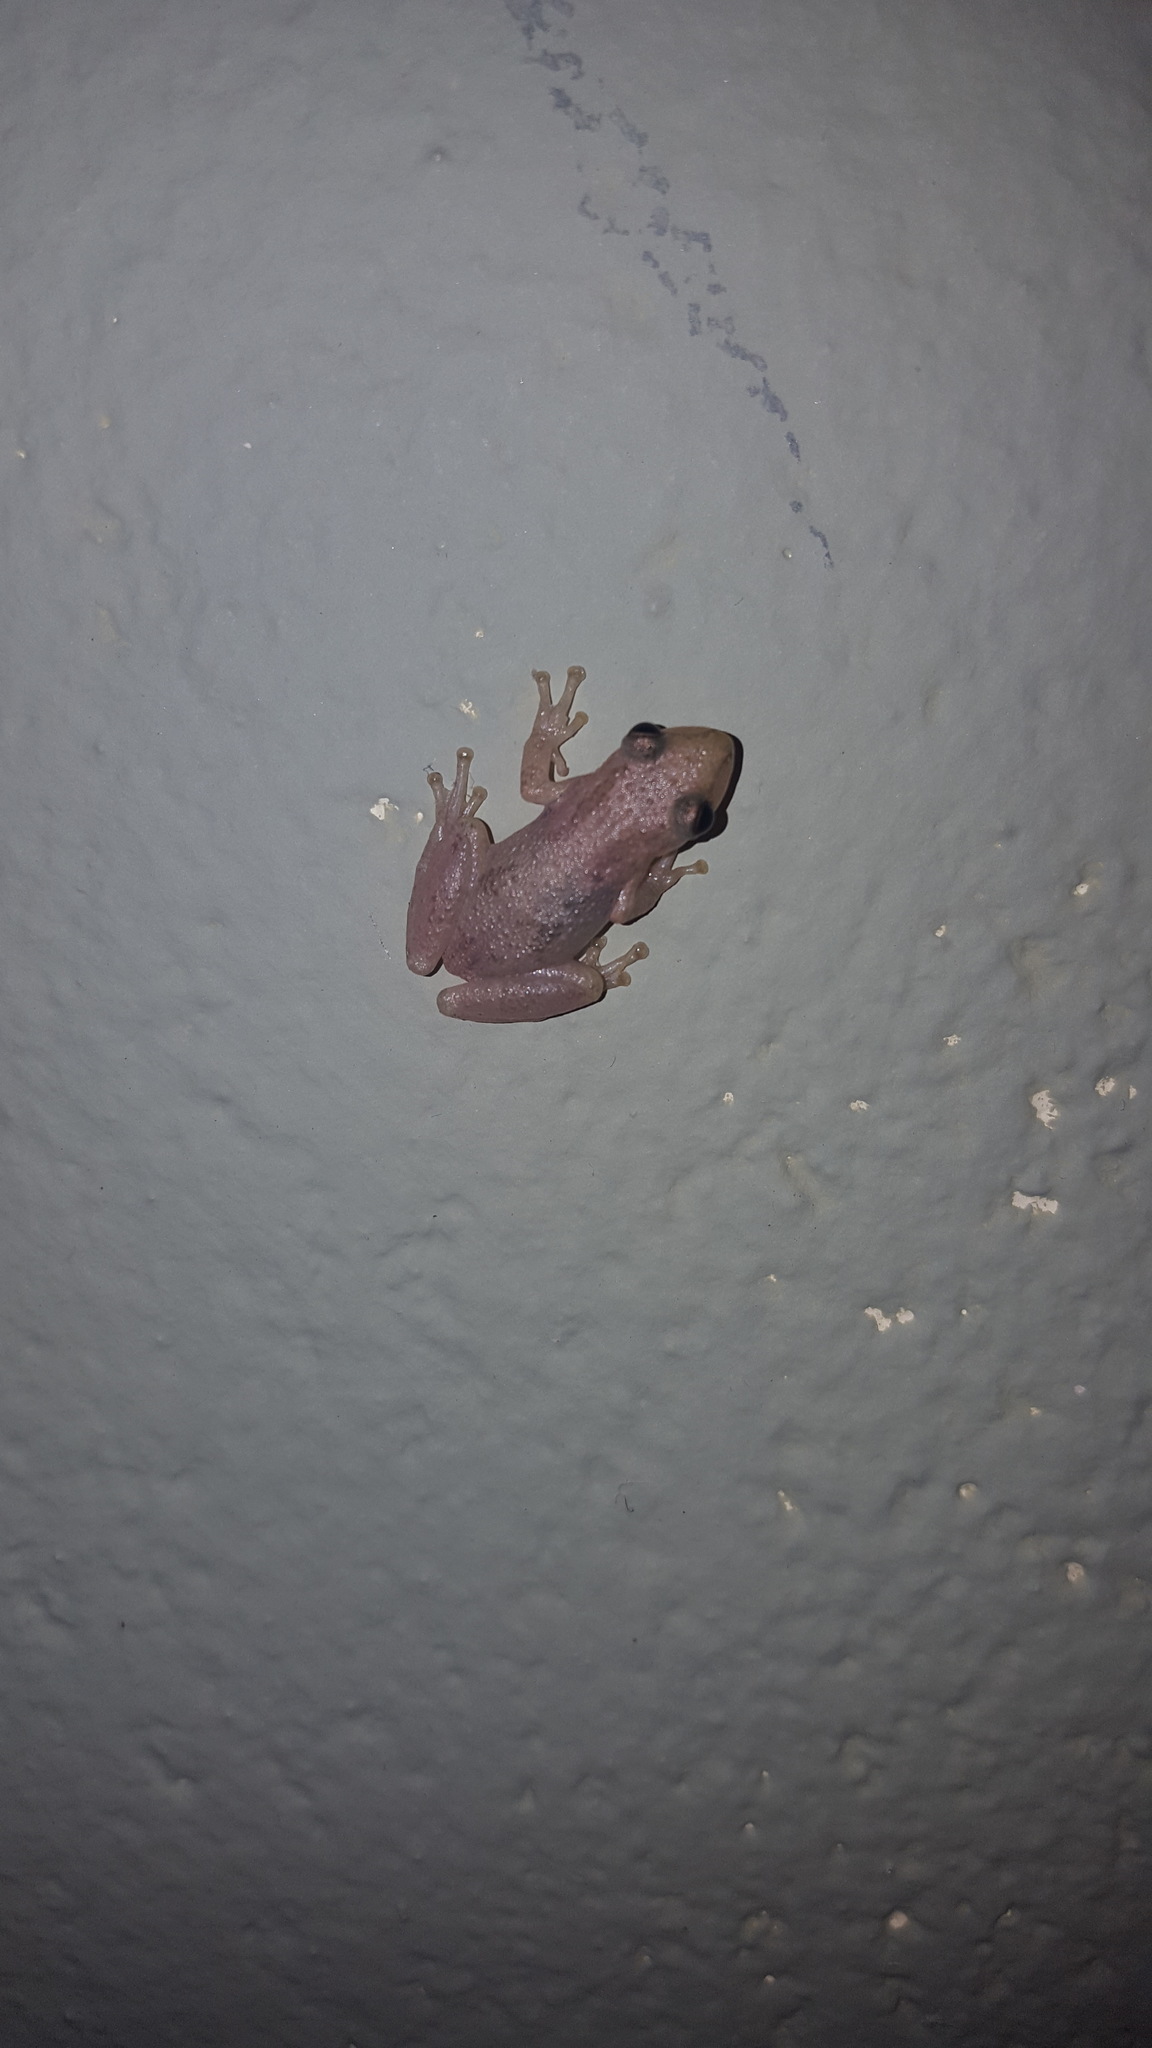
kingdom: Animalia
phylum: Chordata
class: Amphibia
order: Anura
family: Hylidae
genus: Scinax
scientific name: Scinax staufferi
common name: Stauffer's long-nosed treefrog
